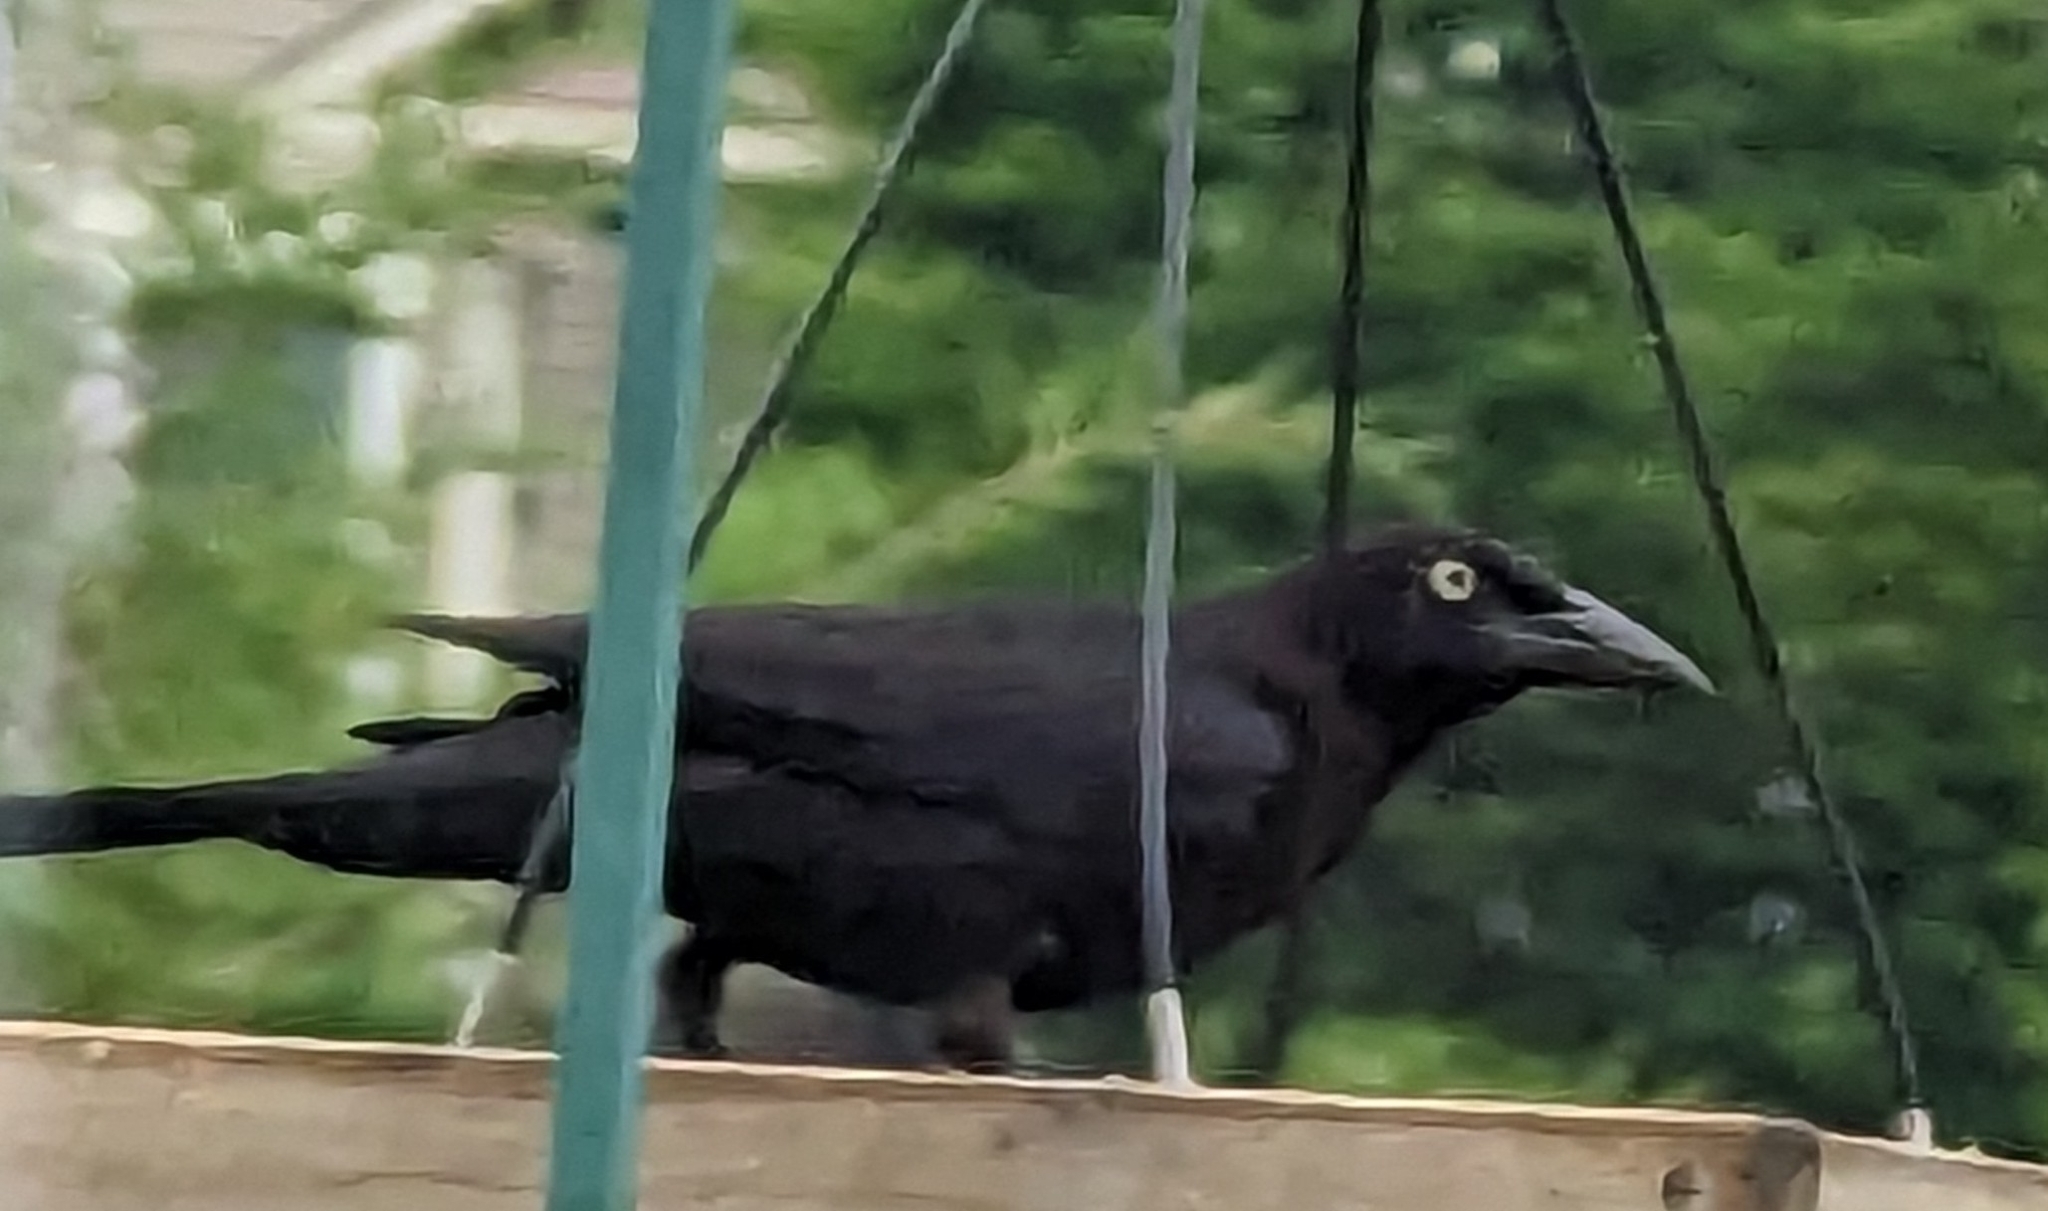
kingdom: Animalia
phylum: Chordata
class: Aves
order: Passeriformes
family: Icteridae
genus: Quiscalus
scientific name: Quiscalus quiscula
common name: Common grackle
